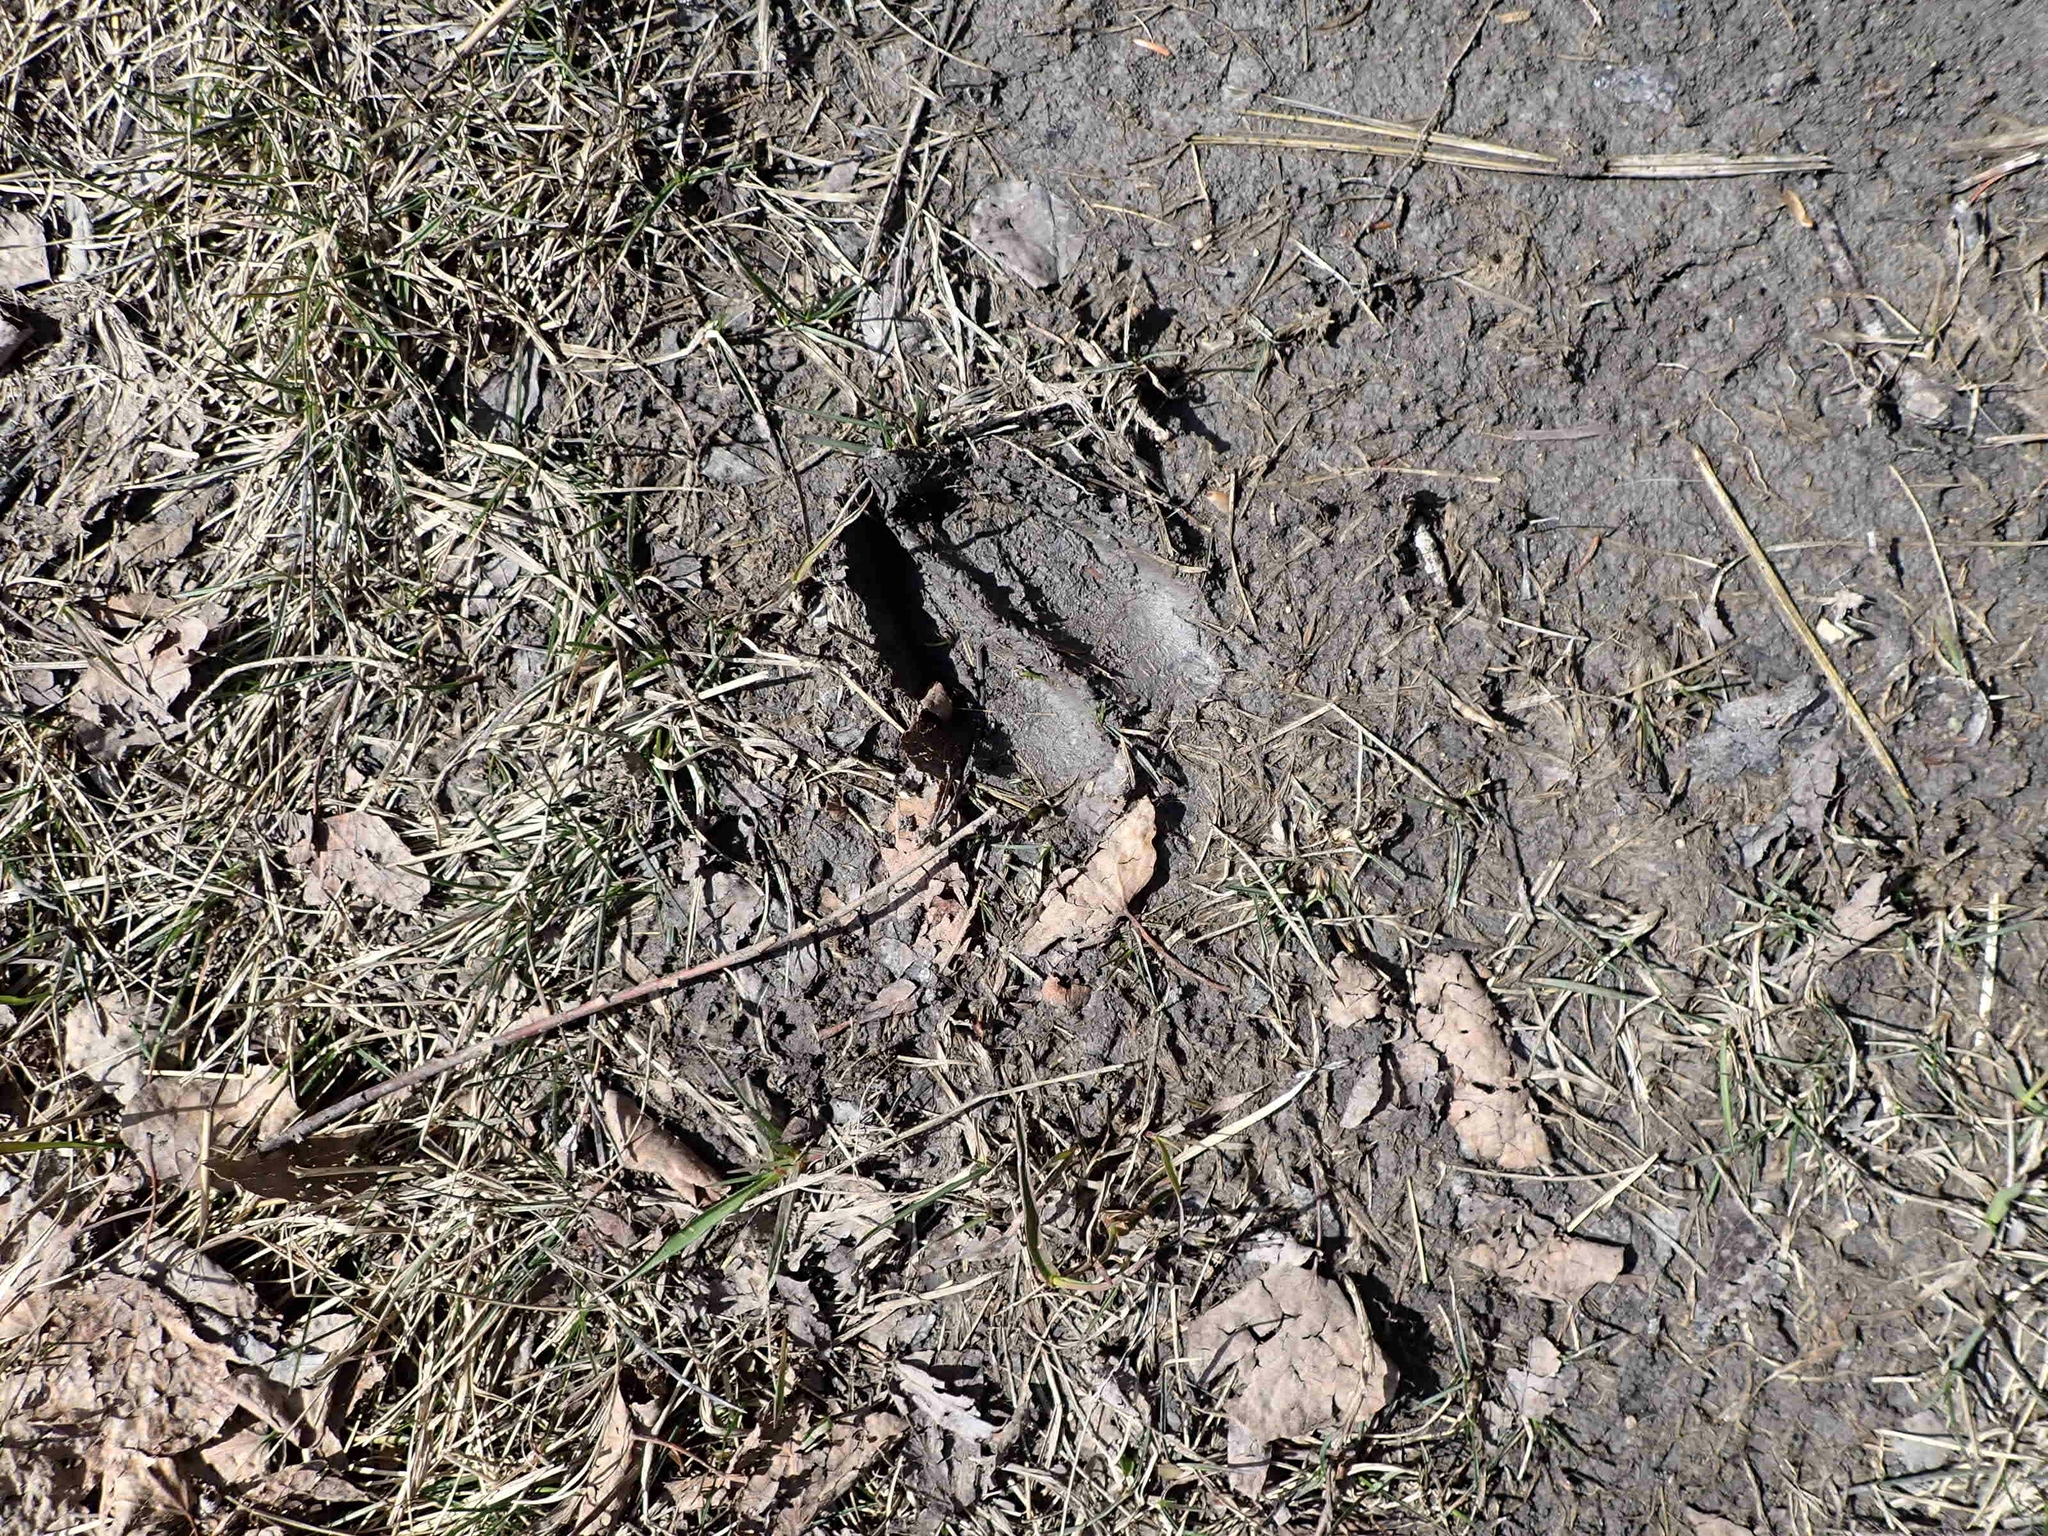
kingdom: Animalia
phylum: Chordata
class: Mammalia
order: Artiodactyla
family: Cervidae
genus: Odocoileus
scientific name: Odocoileus virginianus
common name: White-tailed deer
